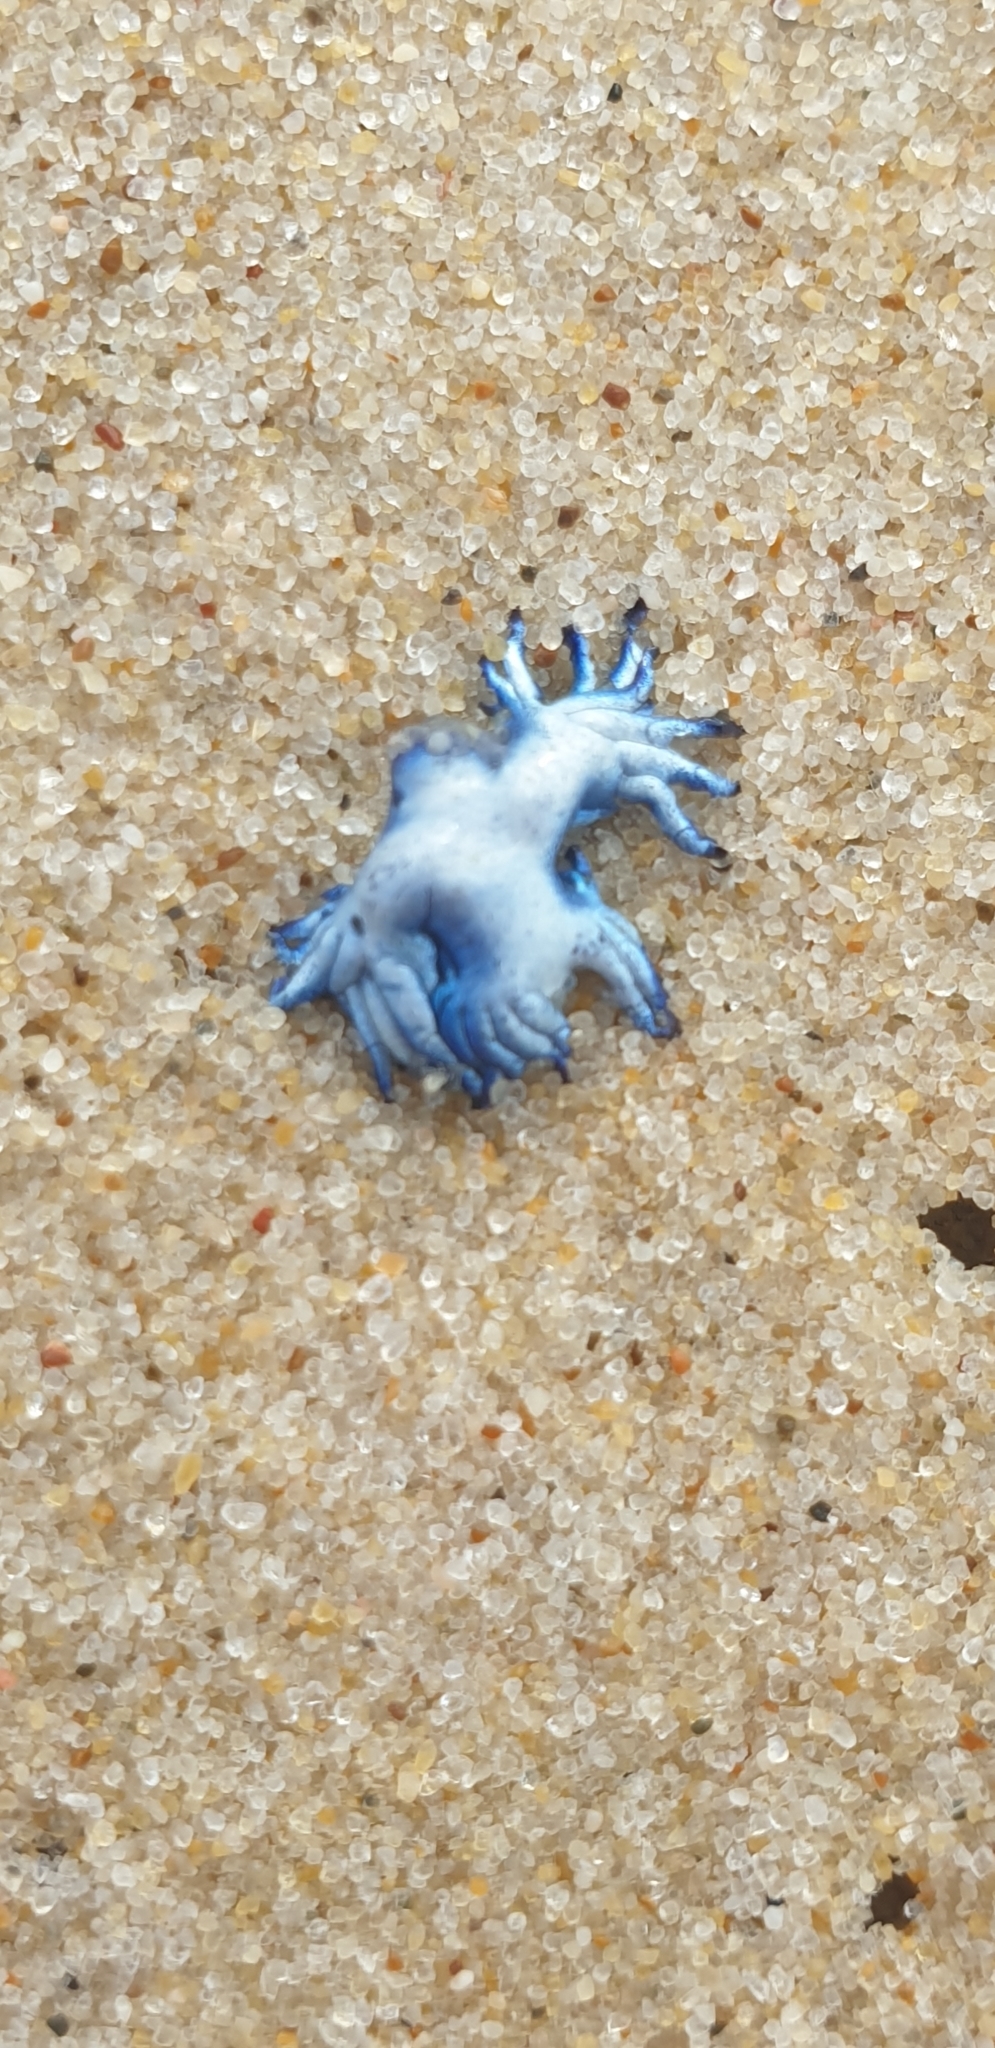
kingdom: Animalia
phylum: Mollusca
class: Gastropoda
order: Nudibranchia
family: Glaucidae
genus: Glaucilla
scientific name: Glaucilla bennettae
